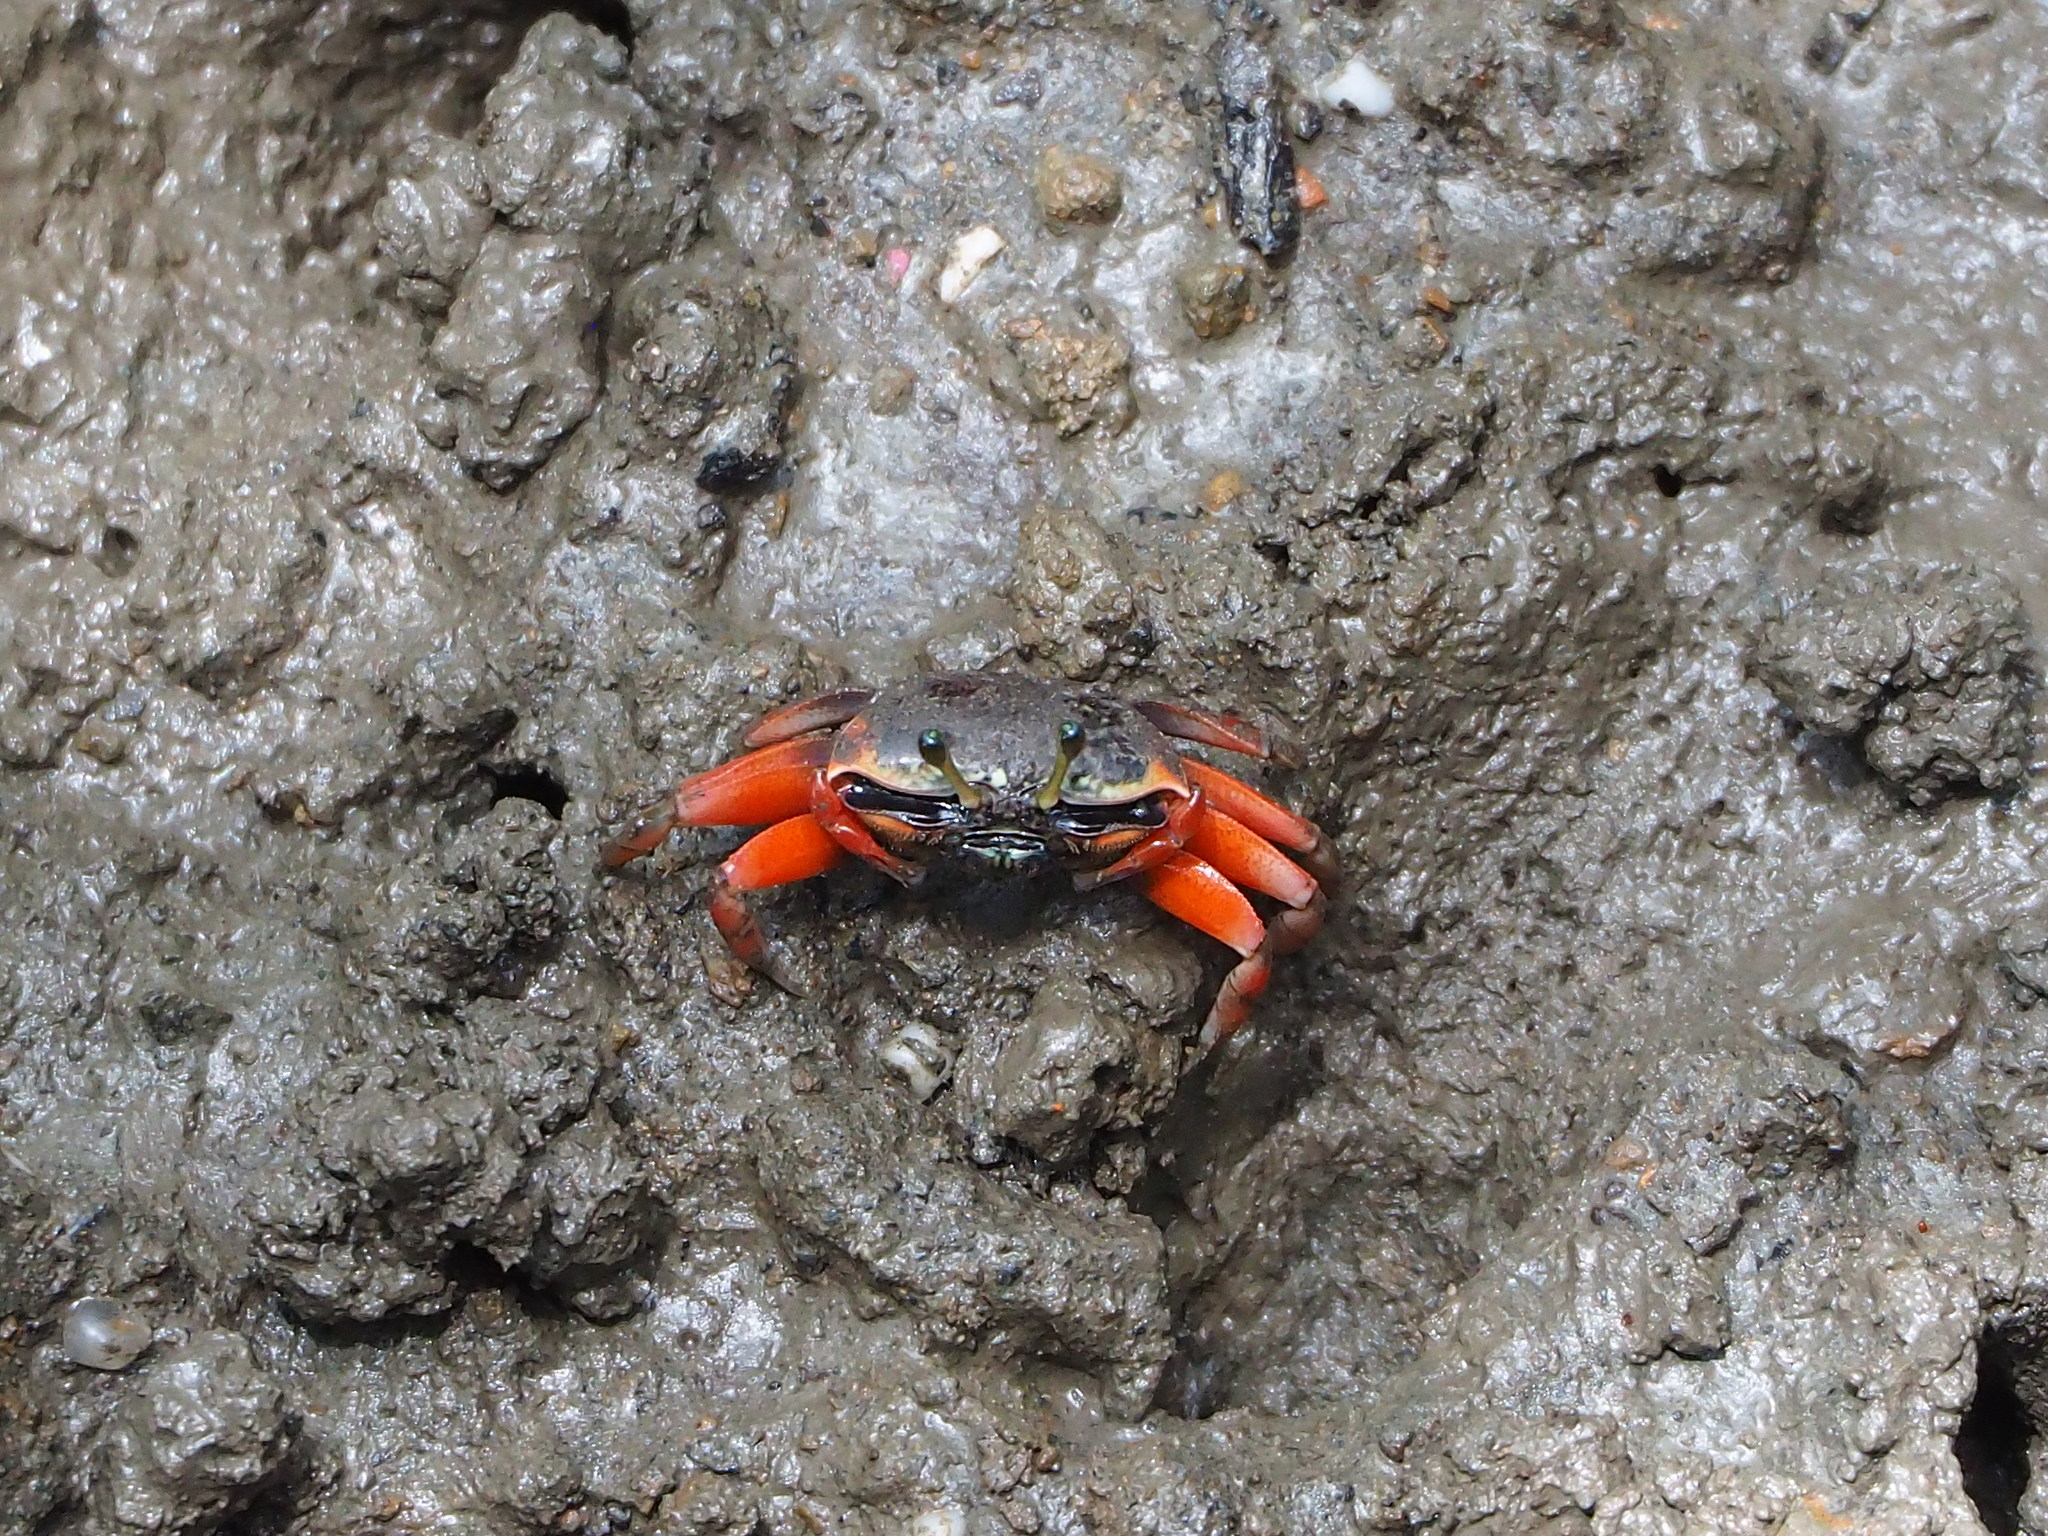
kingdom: Animalia
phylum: Arthropoda
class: Malacostraca
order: Decapoda
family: Ocypodidae
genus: Tubuca
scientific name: Tubuca arcuata
